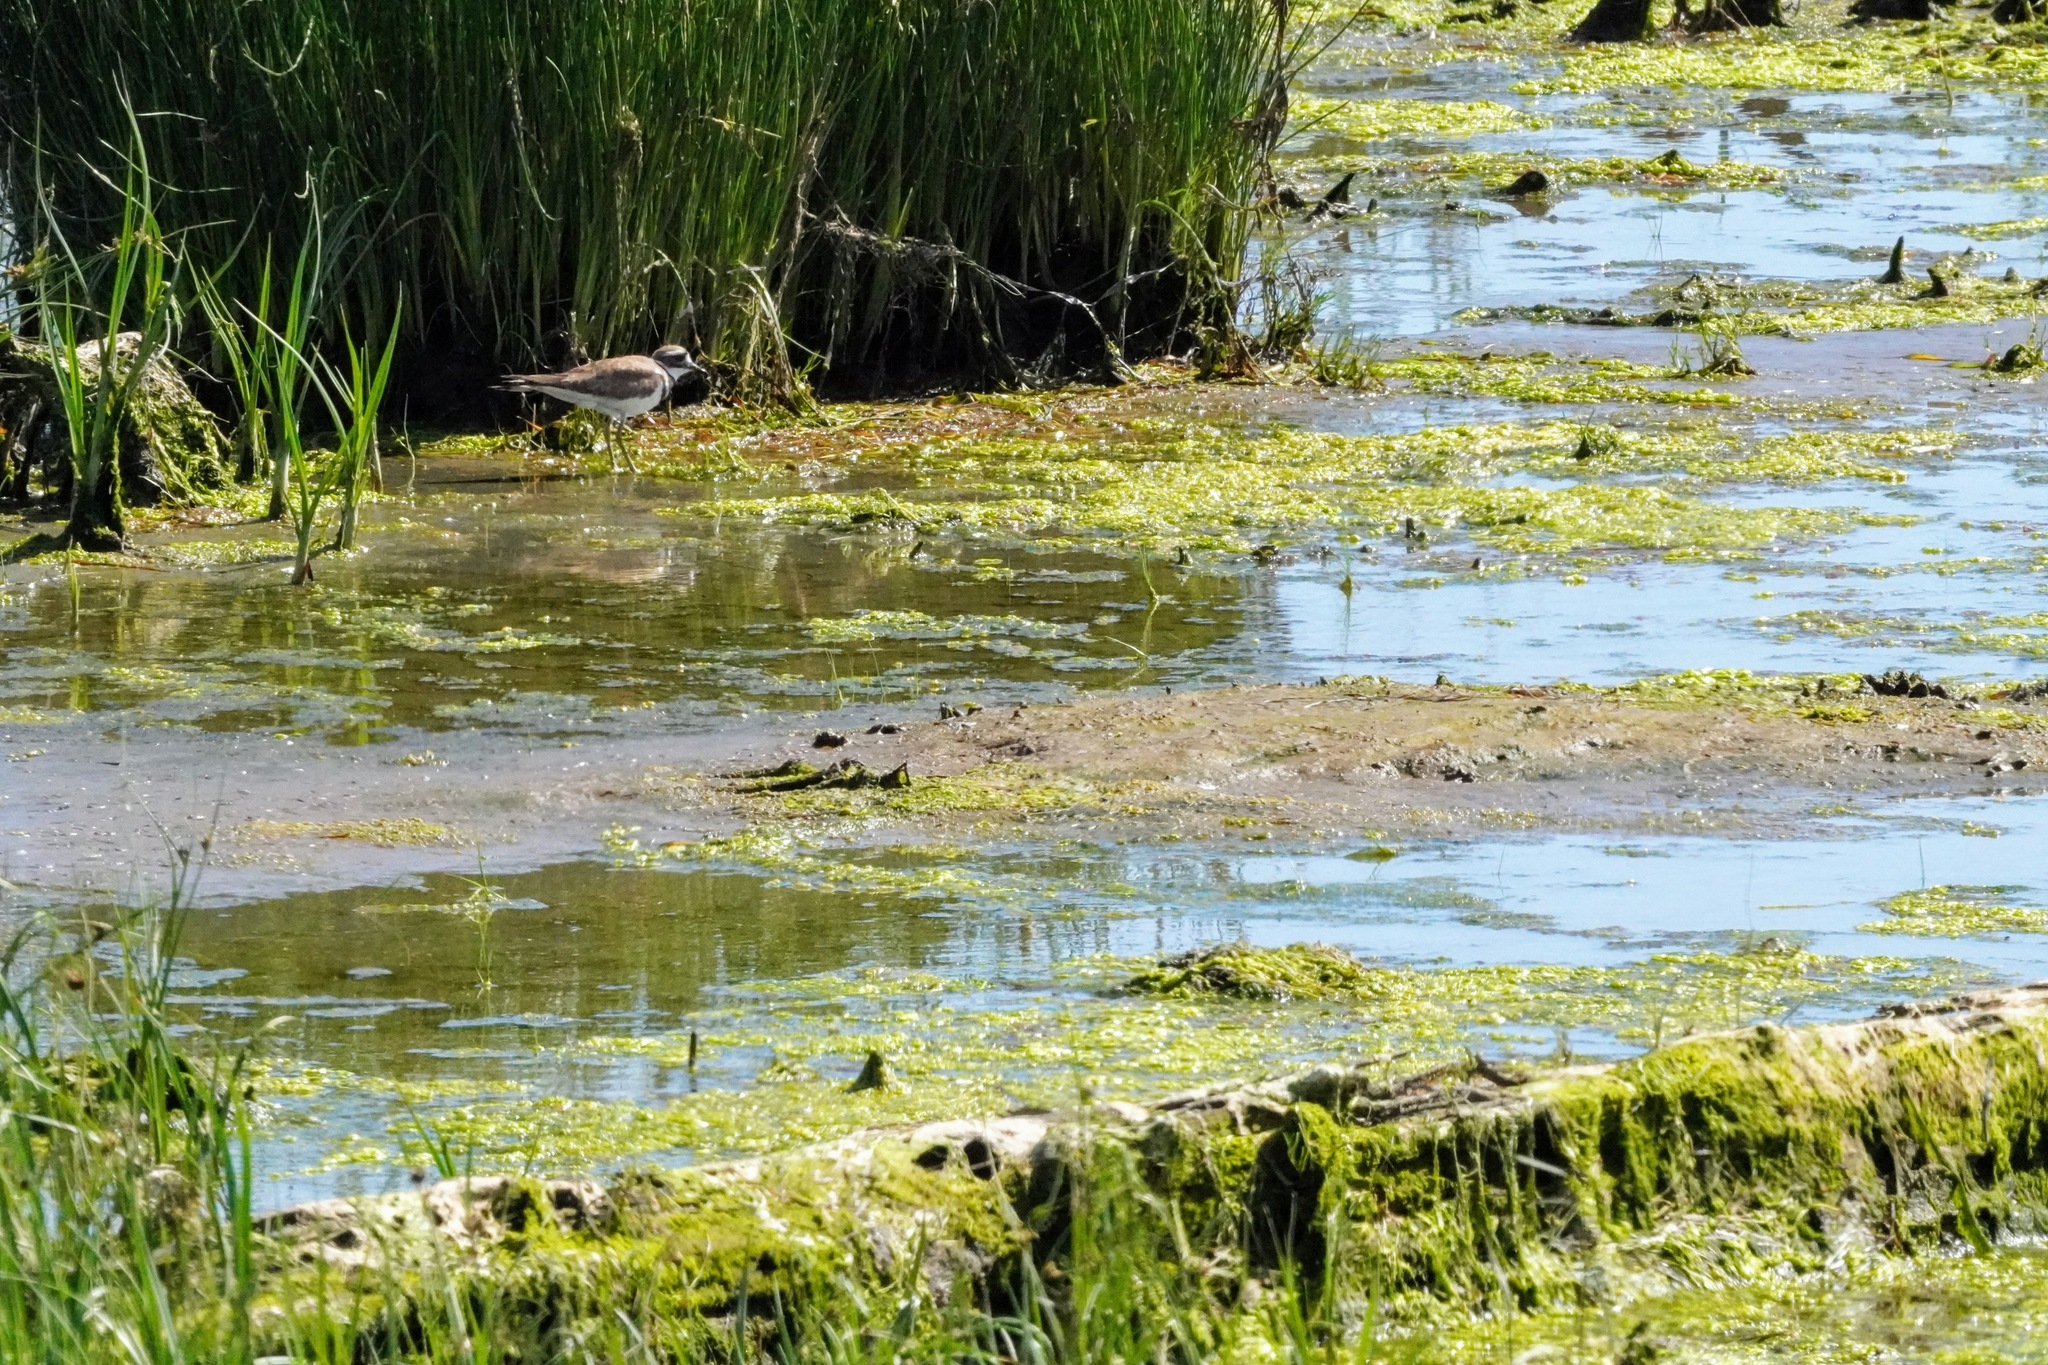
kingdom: Animalia
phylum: Chordata
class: Aves
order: Charadriiformes
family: Charadriidae
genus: Charadrius
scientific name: Charadrius vociferus
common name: Killdeer
